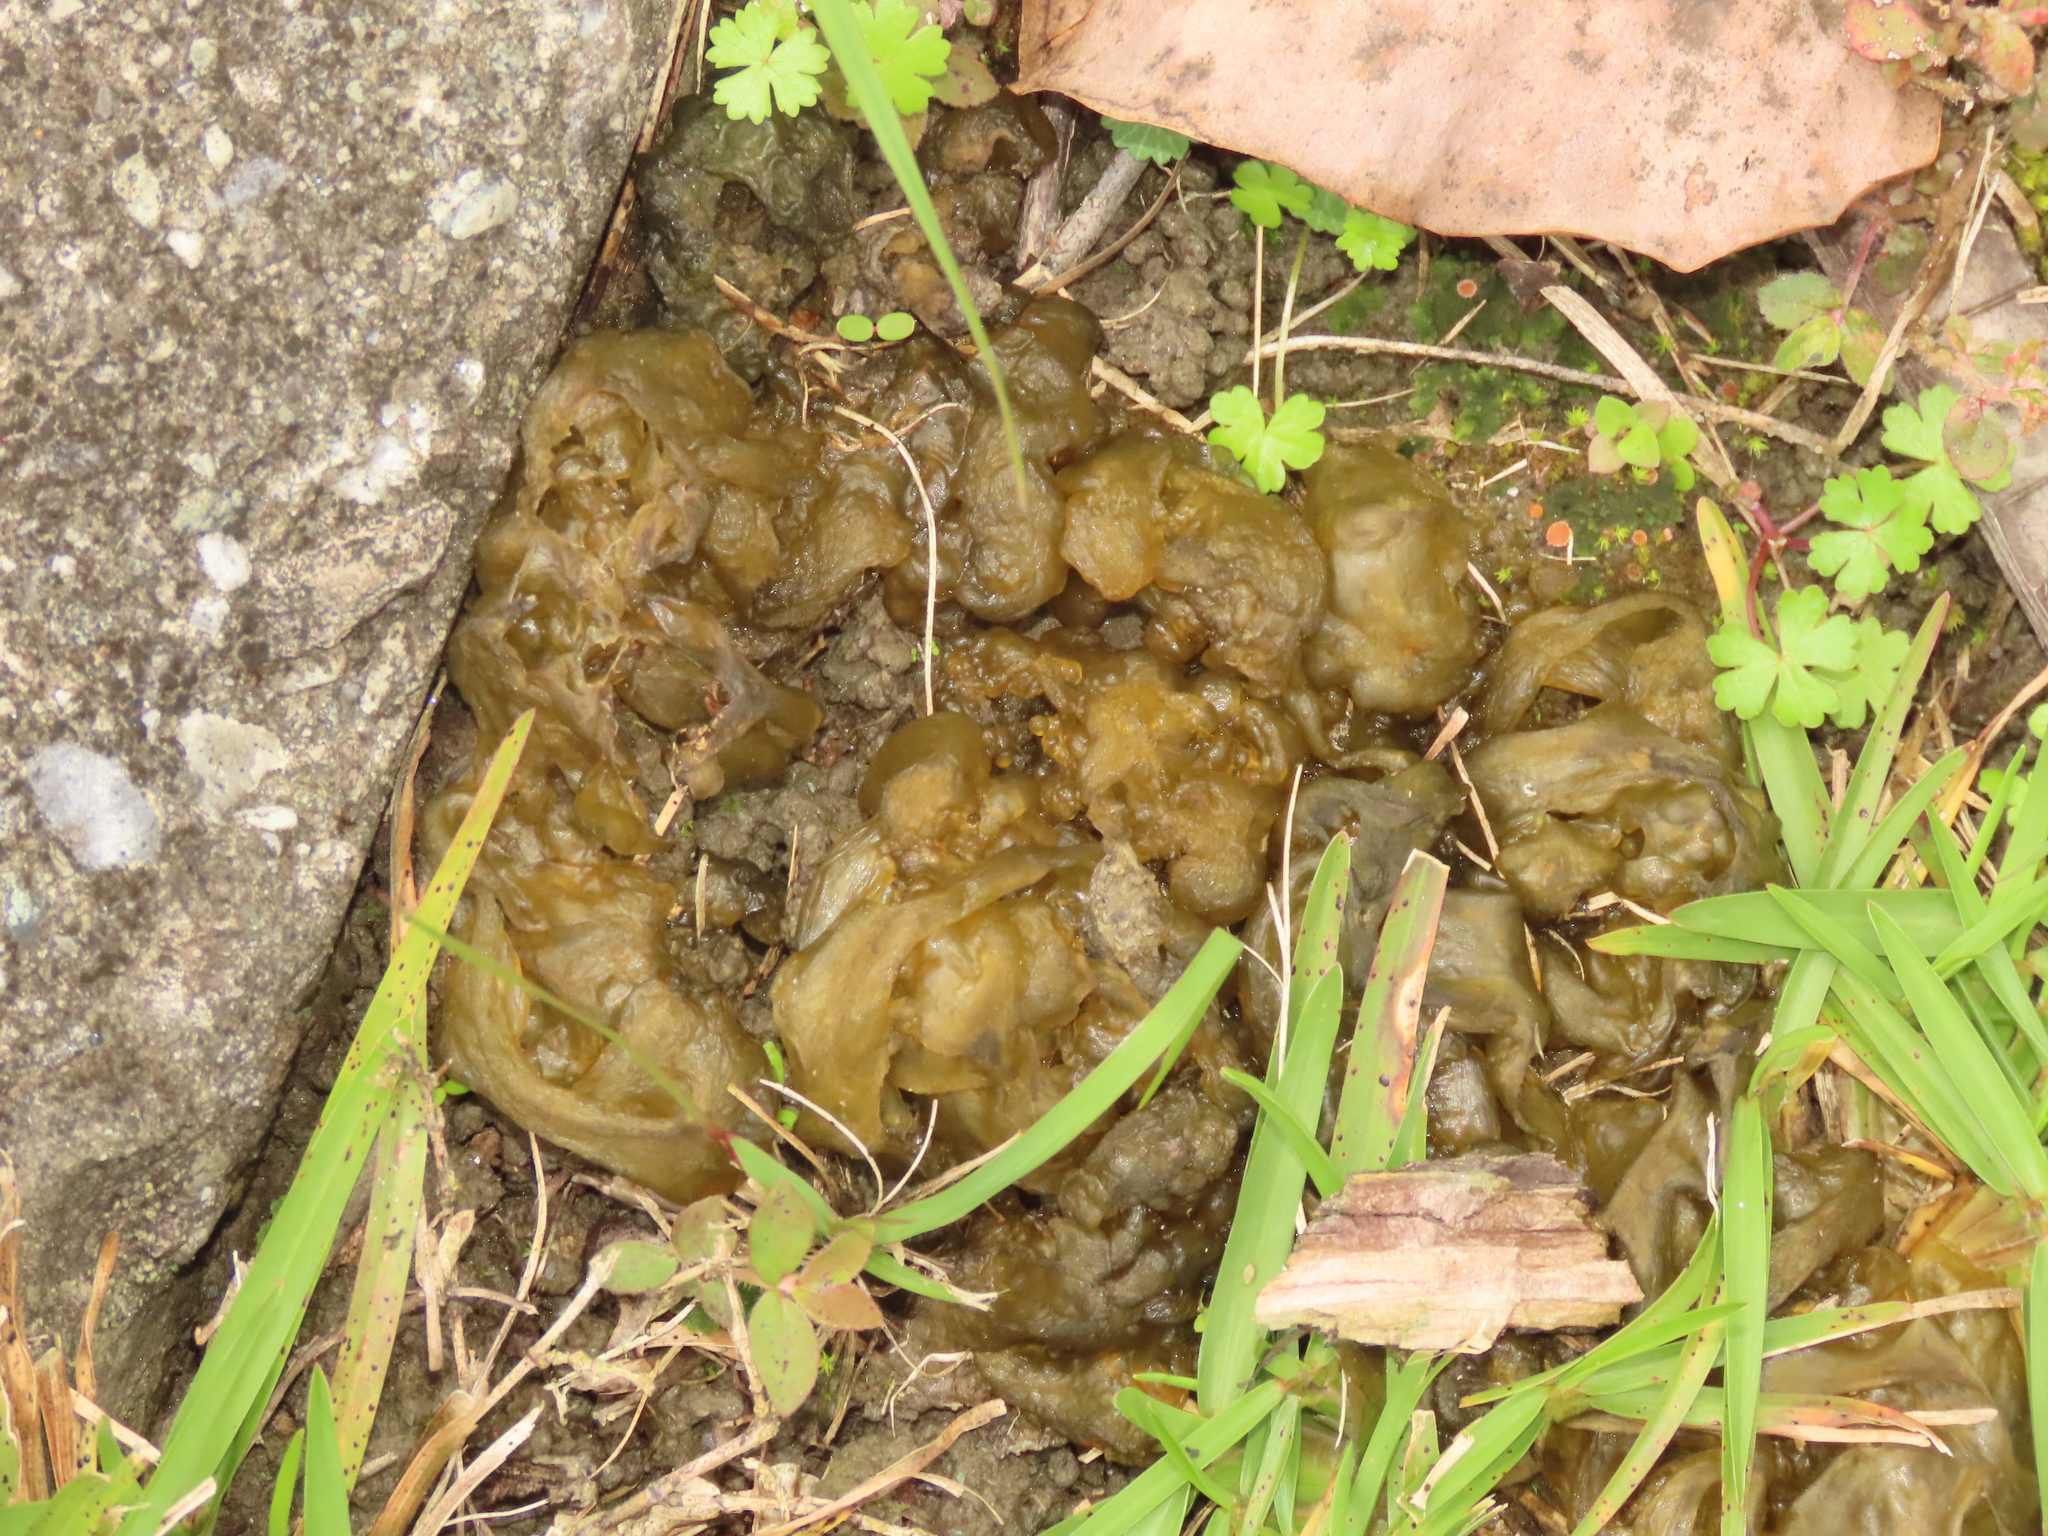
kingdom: Bacteria
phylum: Cyanobacteria
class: Cyanobacteriia
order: Cyanobacteriales
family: Nostocaceae
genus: Nostoc
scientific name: Nostoc commune
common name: Star jelly
